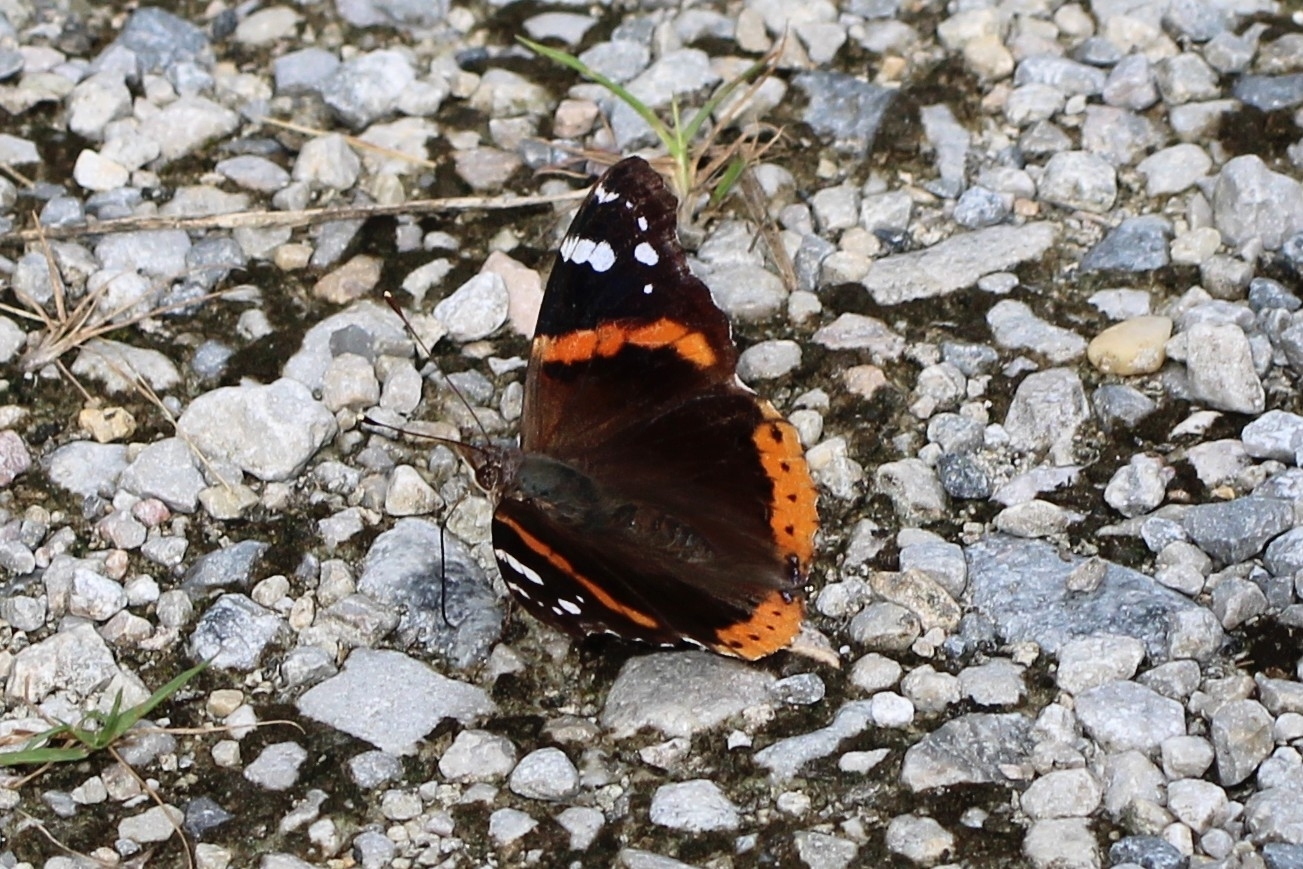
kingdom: Animalia
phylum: Arthropoda
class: Insecta
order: Lepidoptera
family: Nymphalidae
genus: Vanessa
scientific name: Vanessa atalanta
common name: Red admiral
